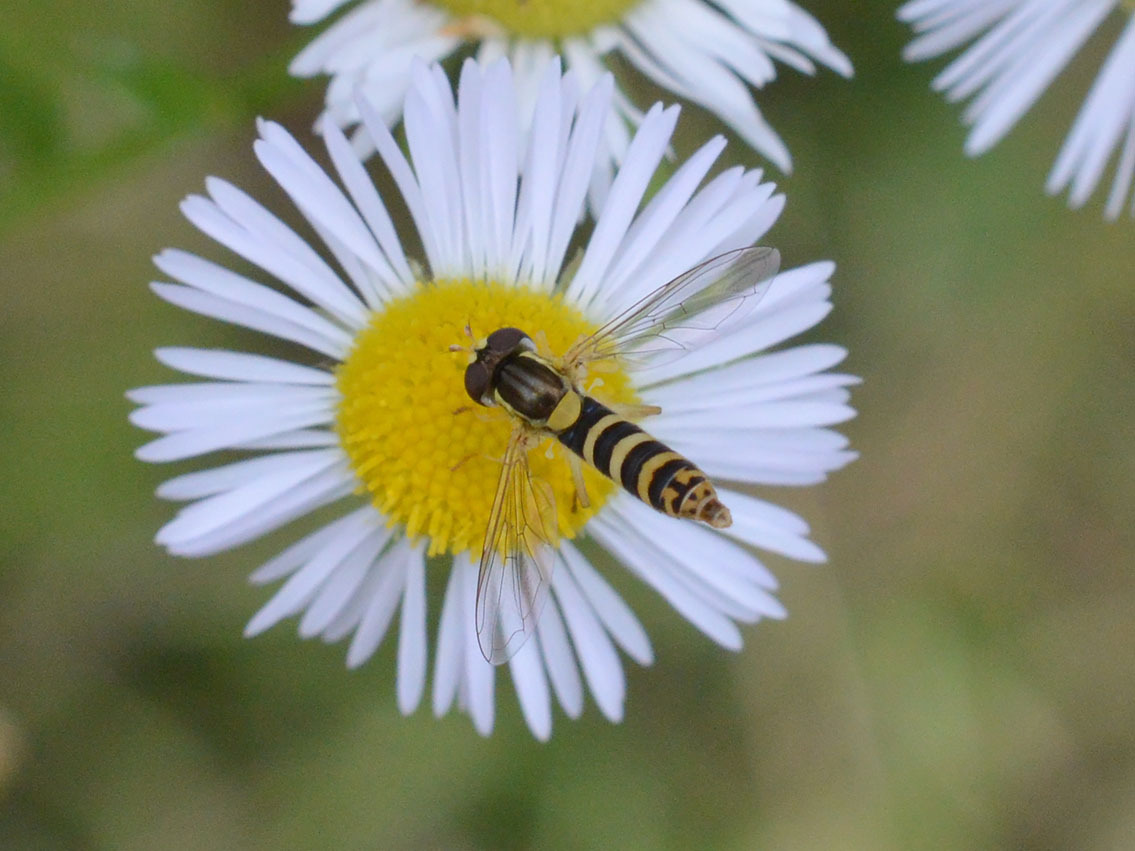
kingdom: Animalia
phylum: Arthropoda
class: Insecta
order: Diptera
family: Syrphidae
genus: Sphaerophoria
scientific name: Sphaerophoria
